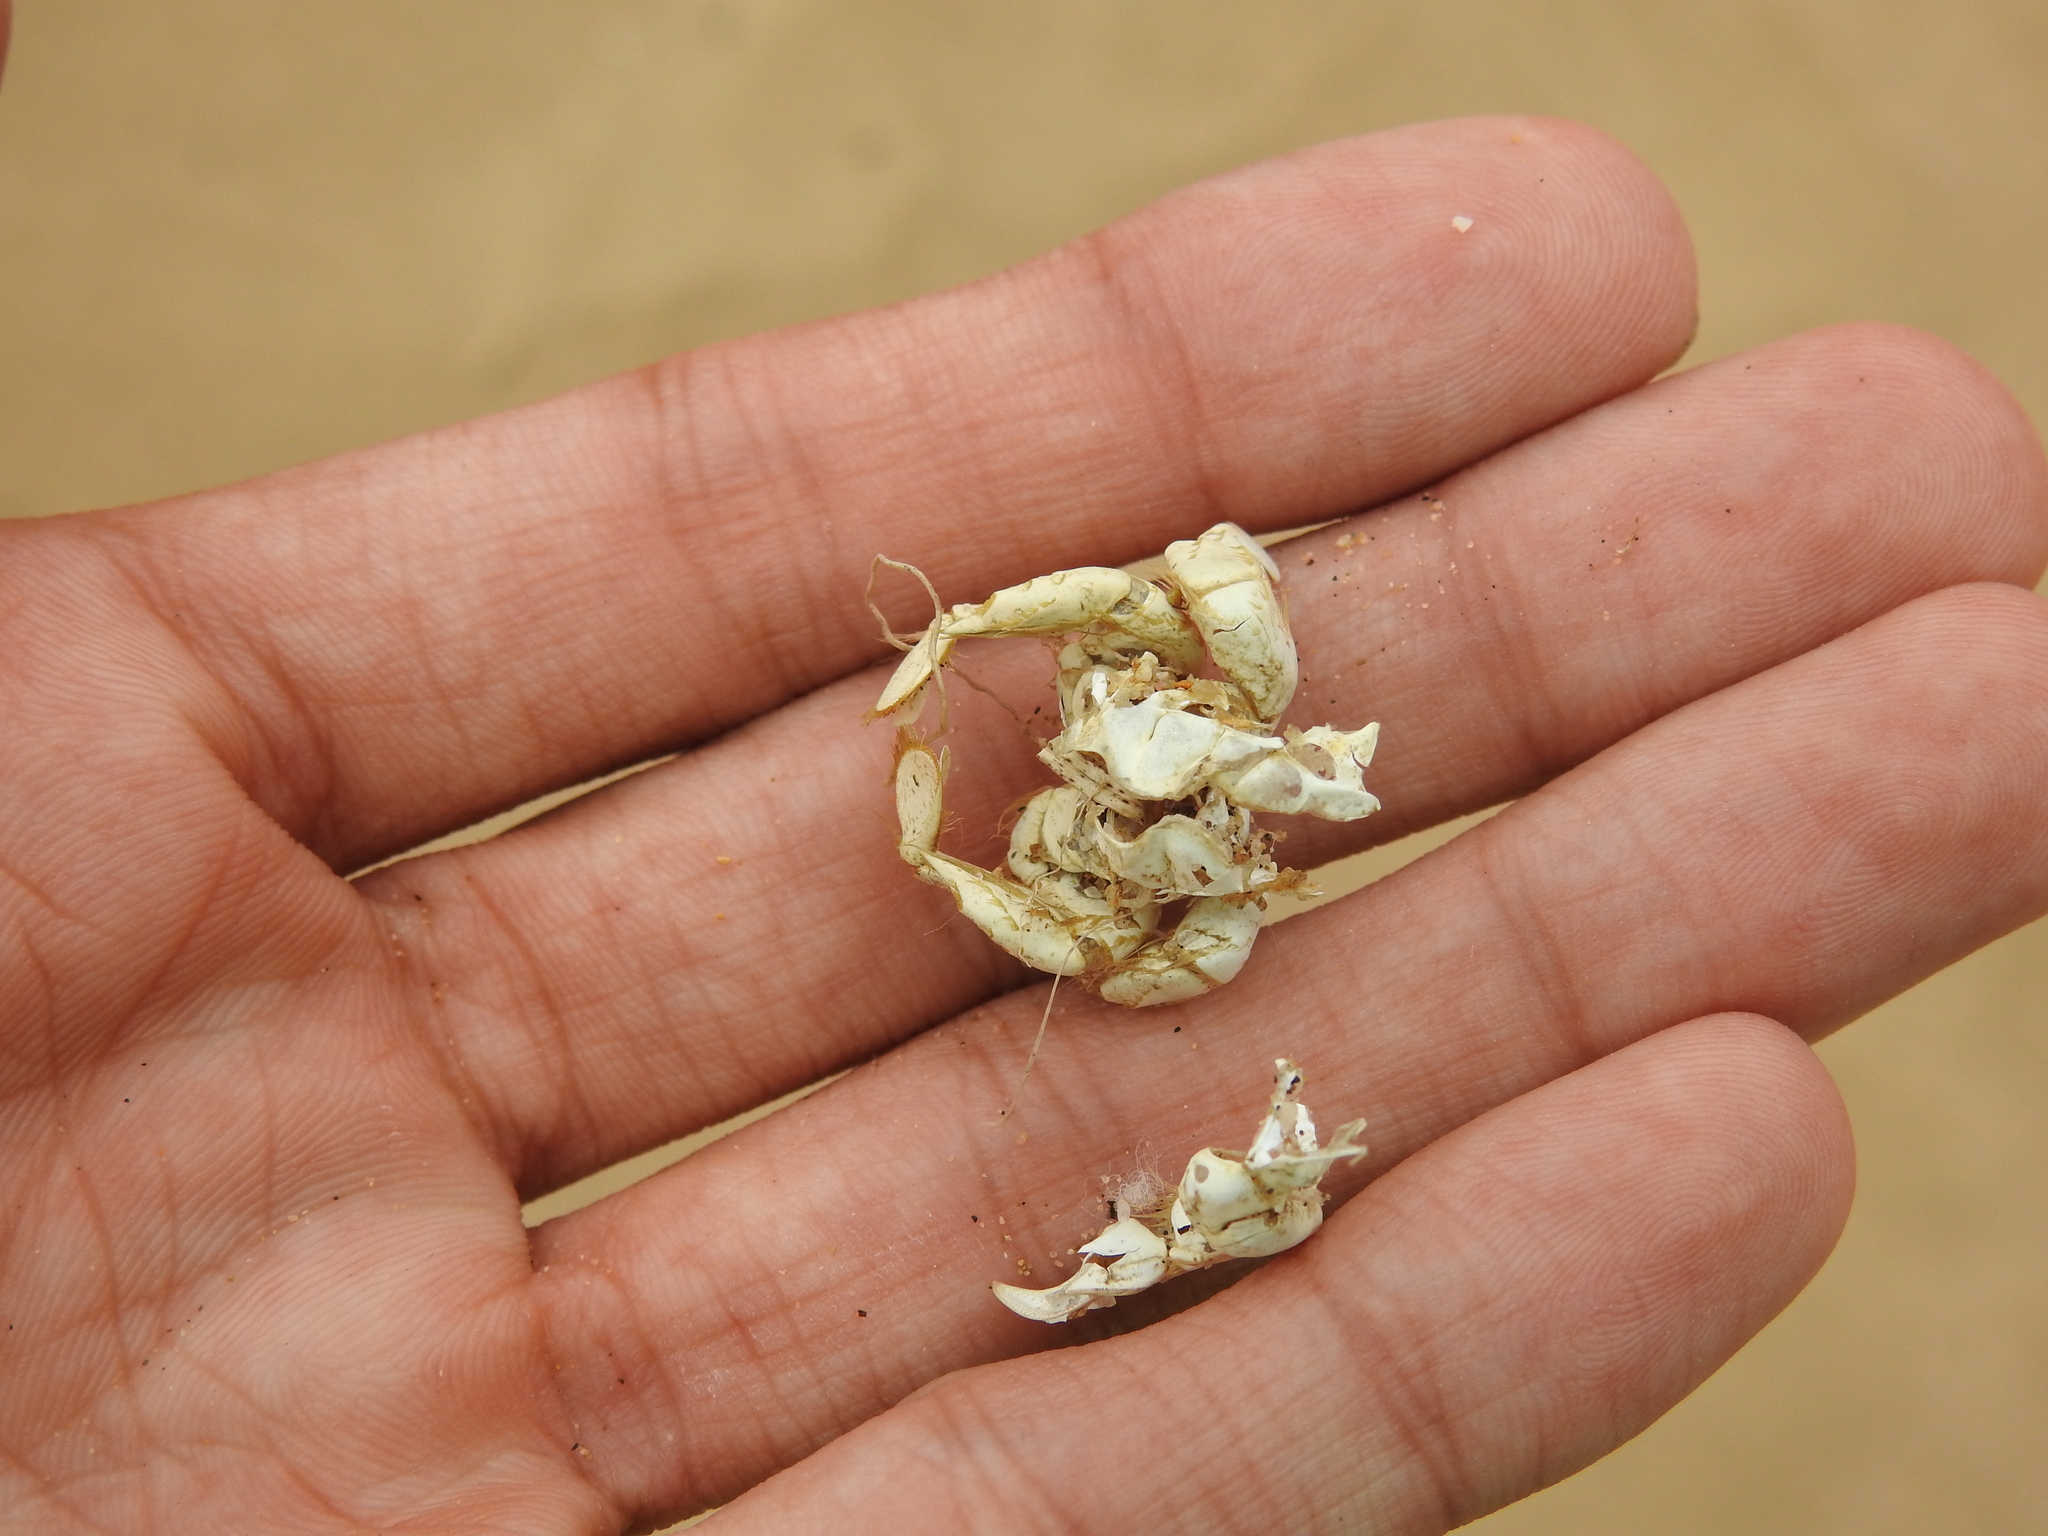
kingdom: Animalia
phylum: Arthropoda
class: Malacostraca
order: Decapoda
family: Hippidae
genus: Emerita
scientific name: Emerita analoga
